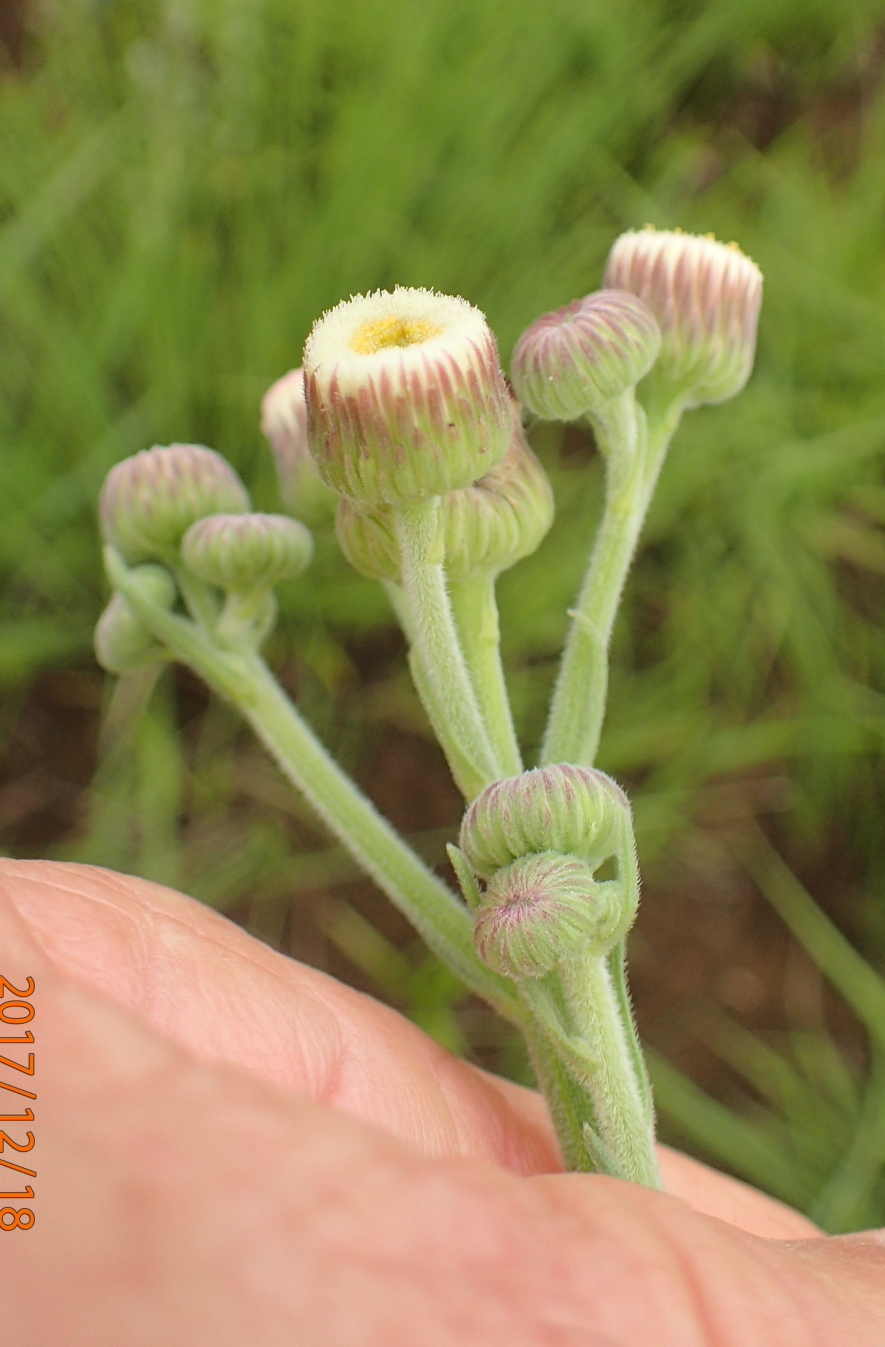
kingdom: Plantae
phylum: Tracheophyta
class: Magnoliopsida
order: Asterales
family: Asteraceae
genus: Erigeron
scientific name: Erigeron primulifolius
